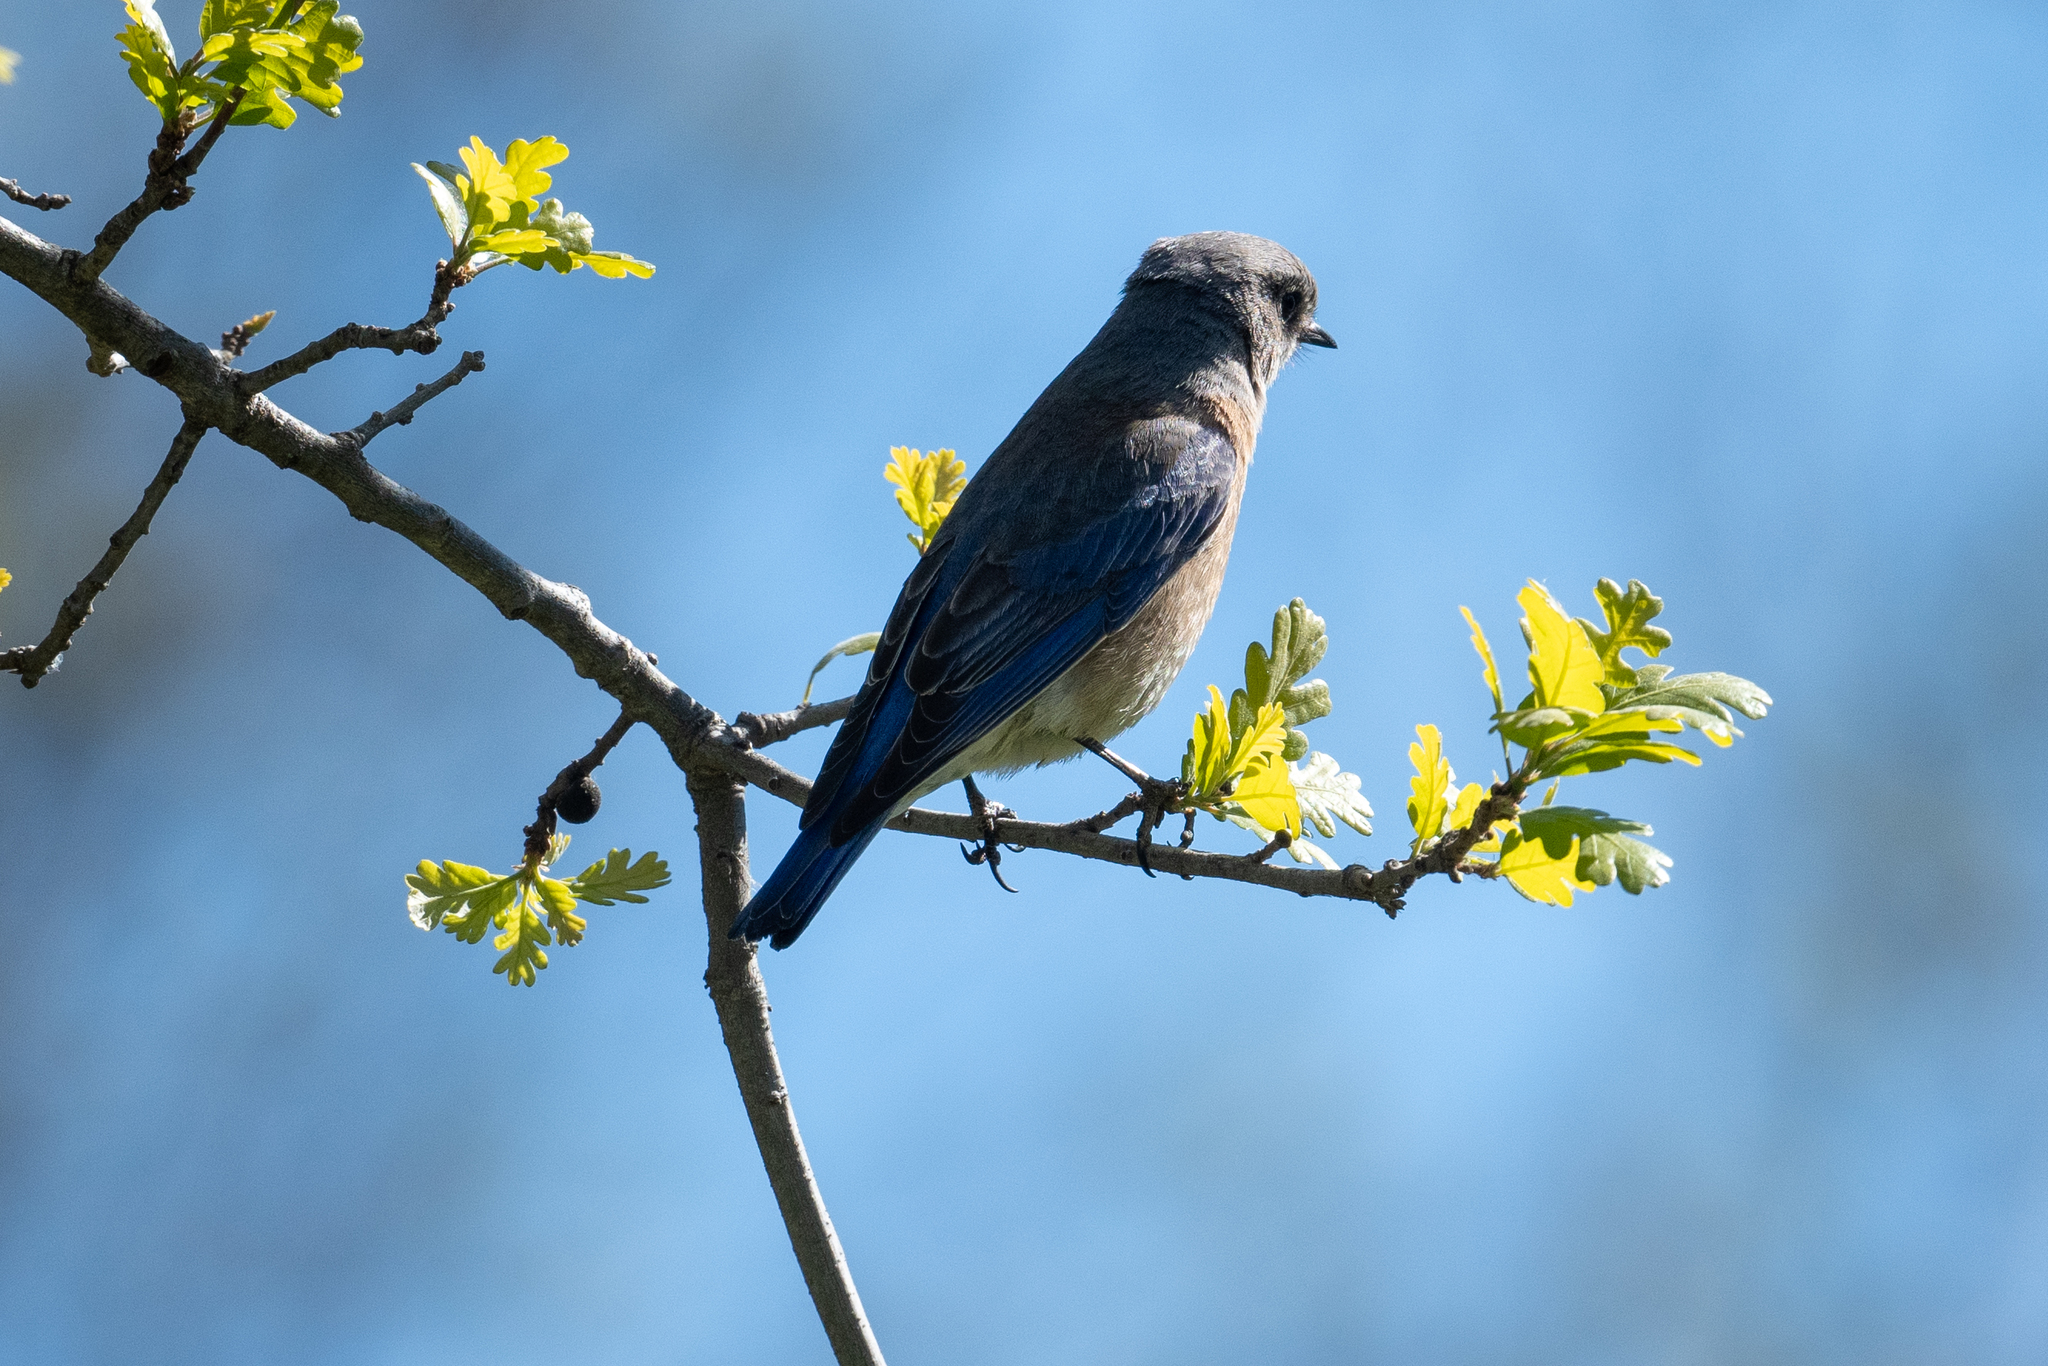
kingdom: Animalia
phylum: Chordata
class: Aves
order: Passeriformes
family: Turdidae
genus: Sialia
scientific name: Sialia mexicana
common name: Western bluebird
